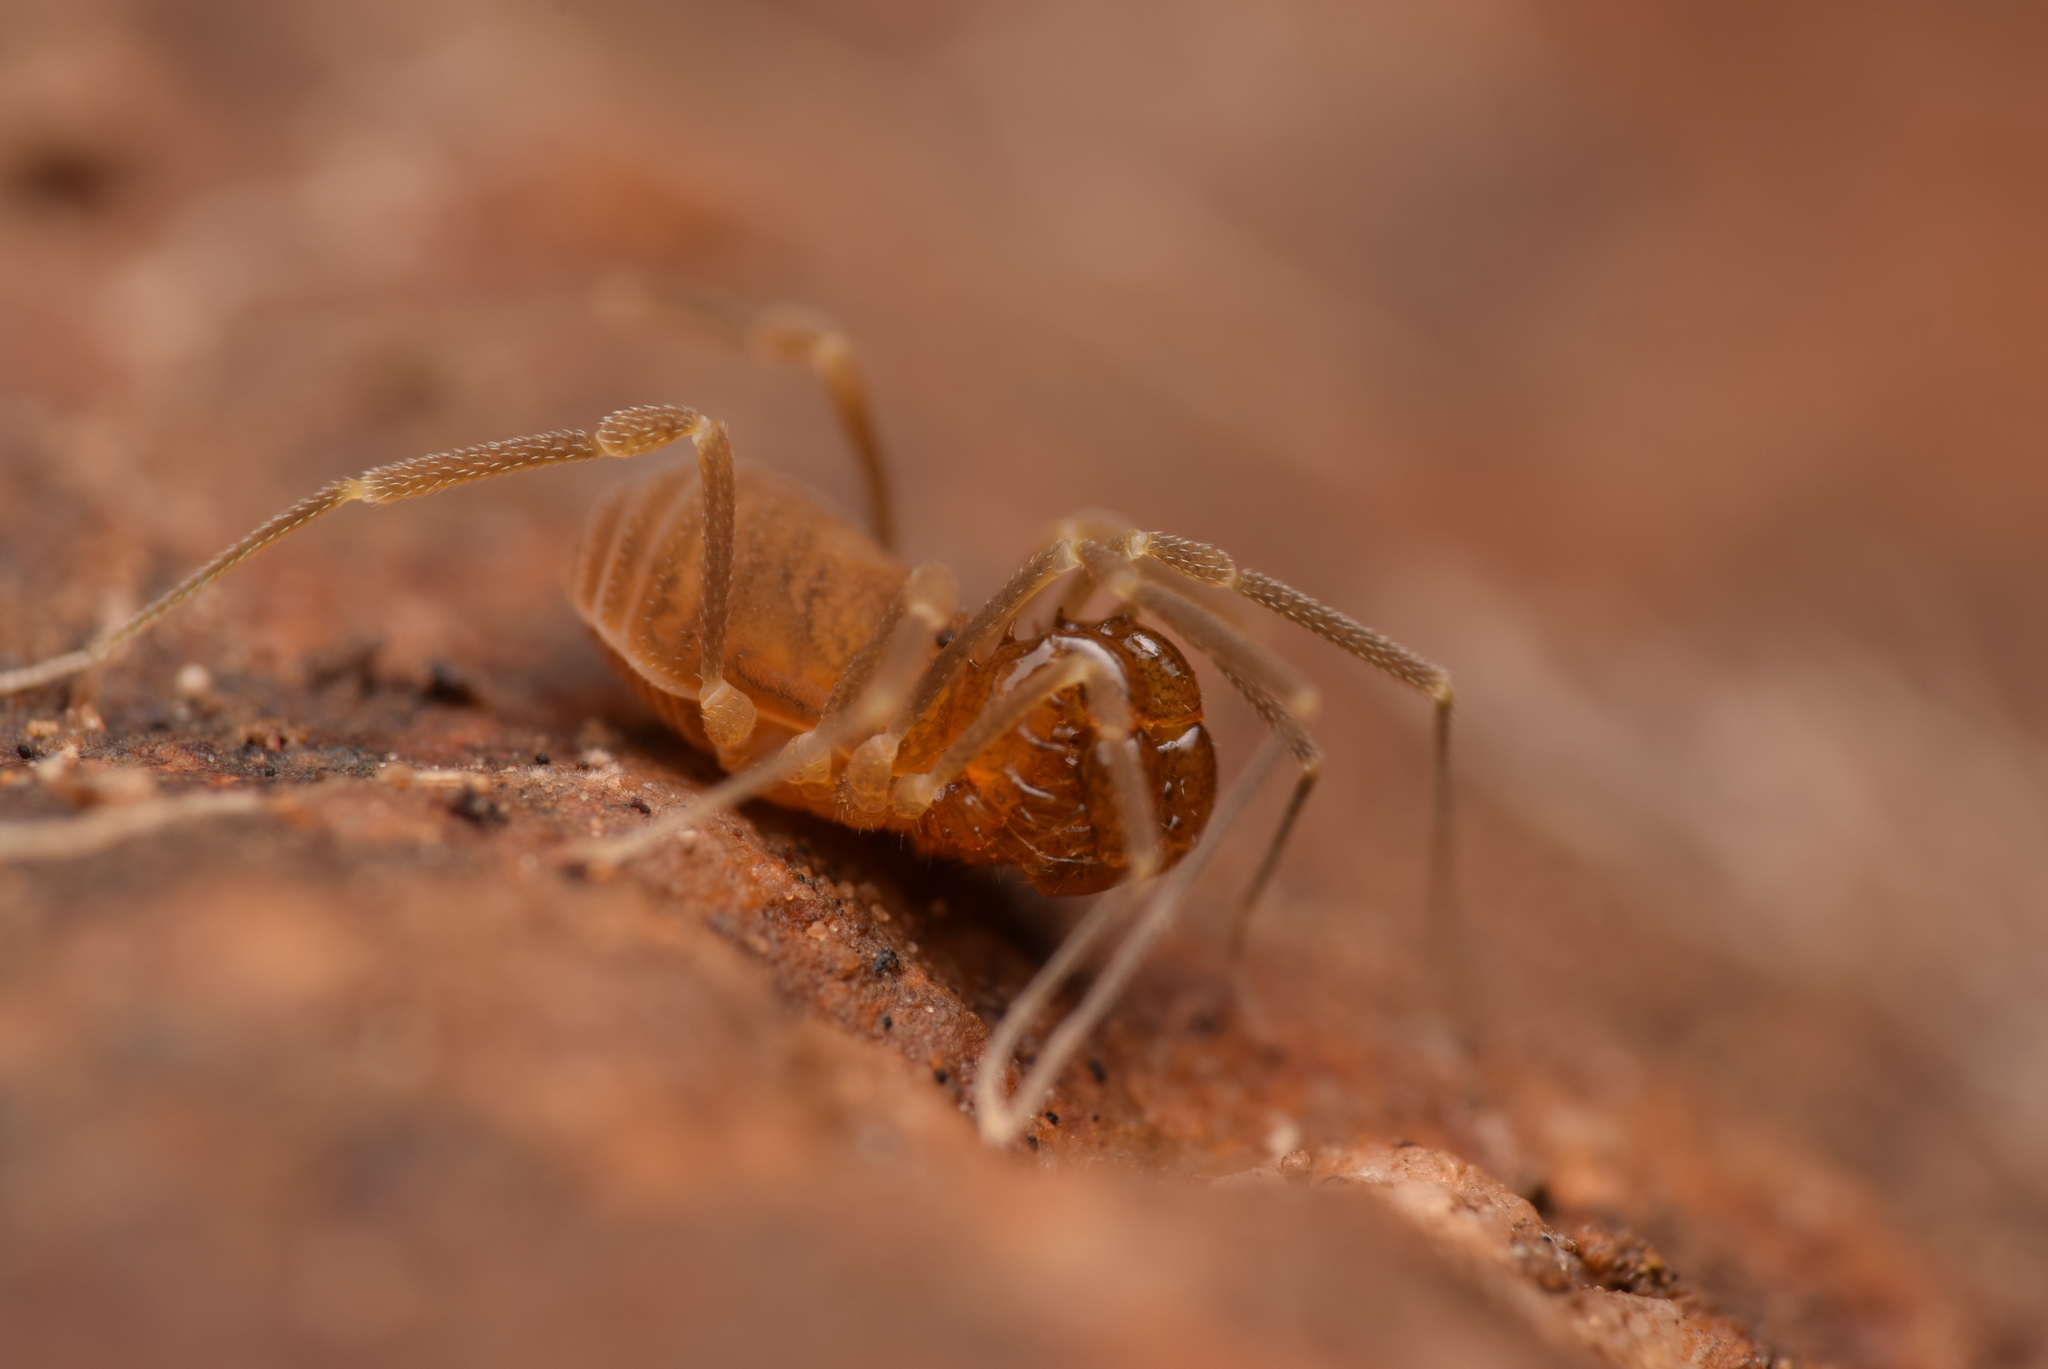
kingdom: Animalia
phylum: Arthropoda
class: Arachnida
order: Opiliones
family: Cladonychiidae
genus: Holoscotolemon
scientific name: Holoscotolemon querilhaci
